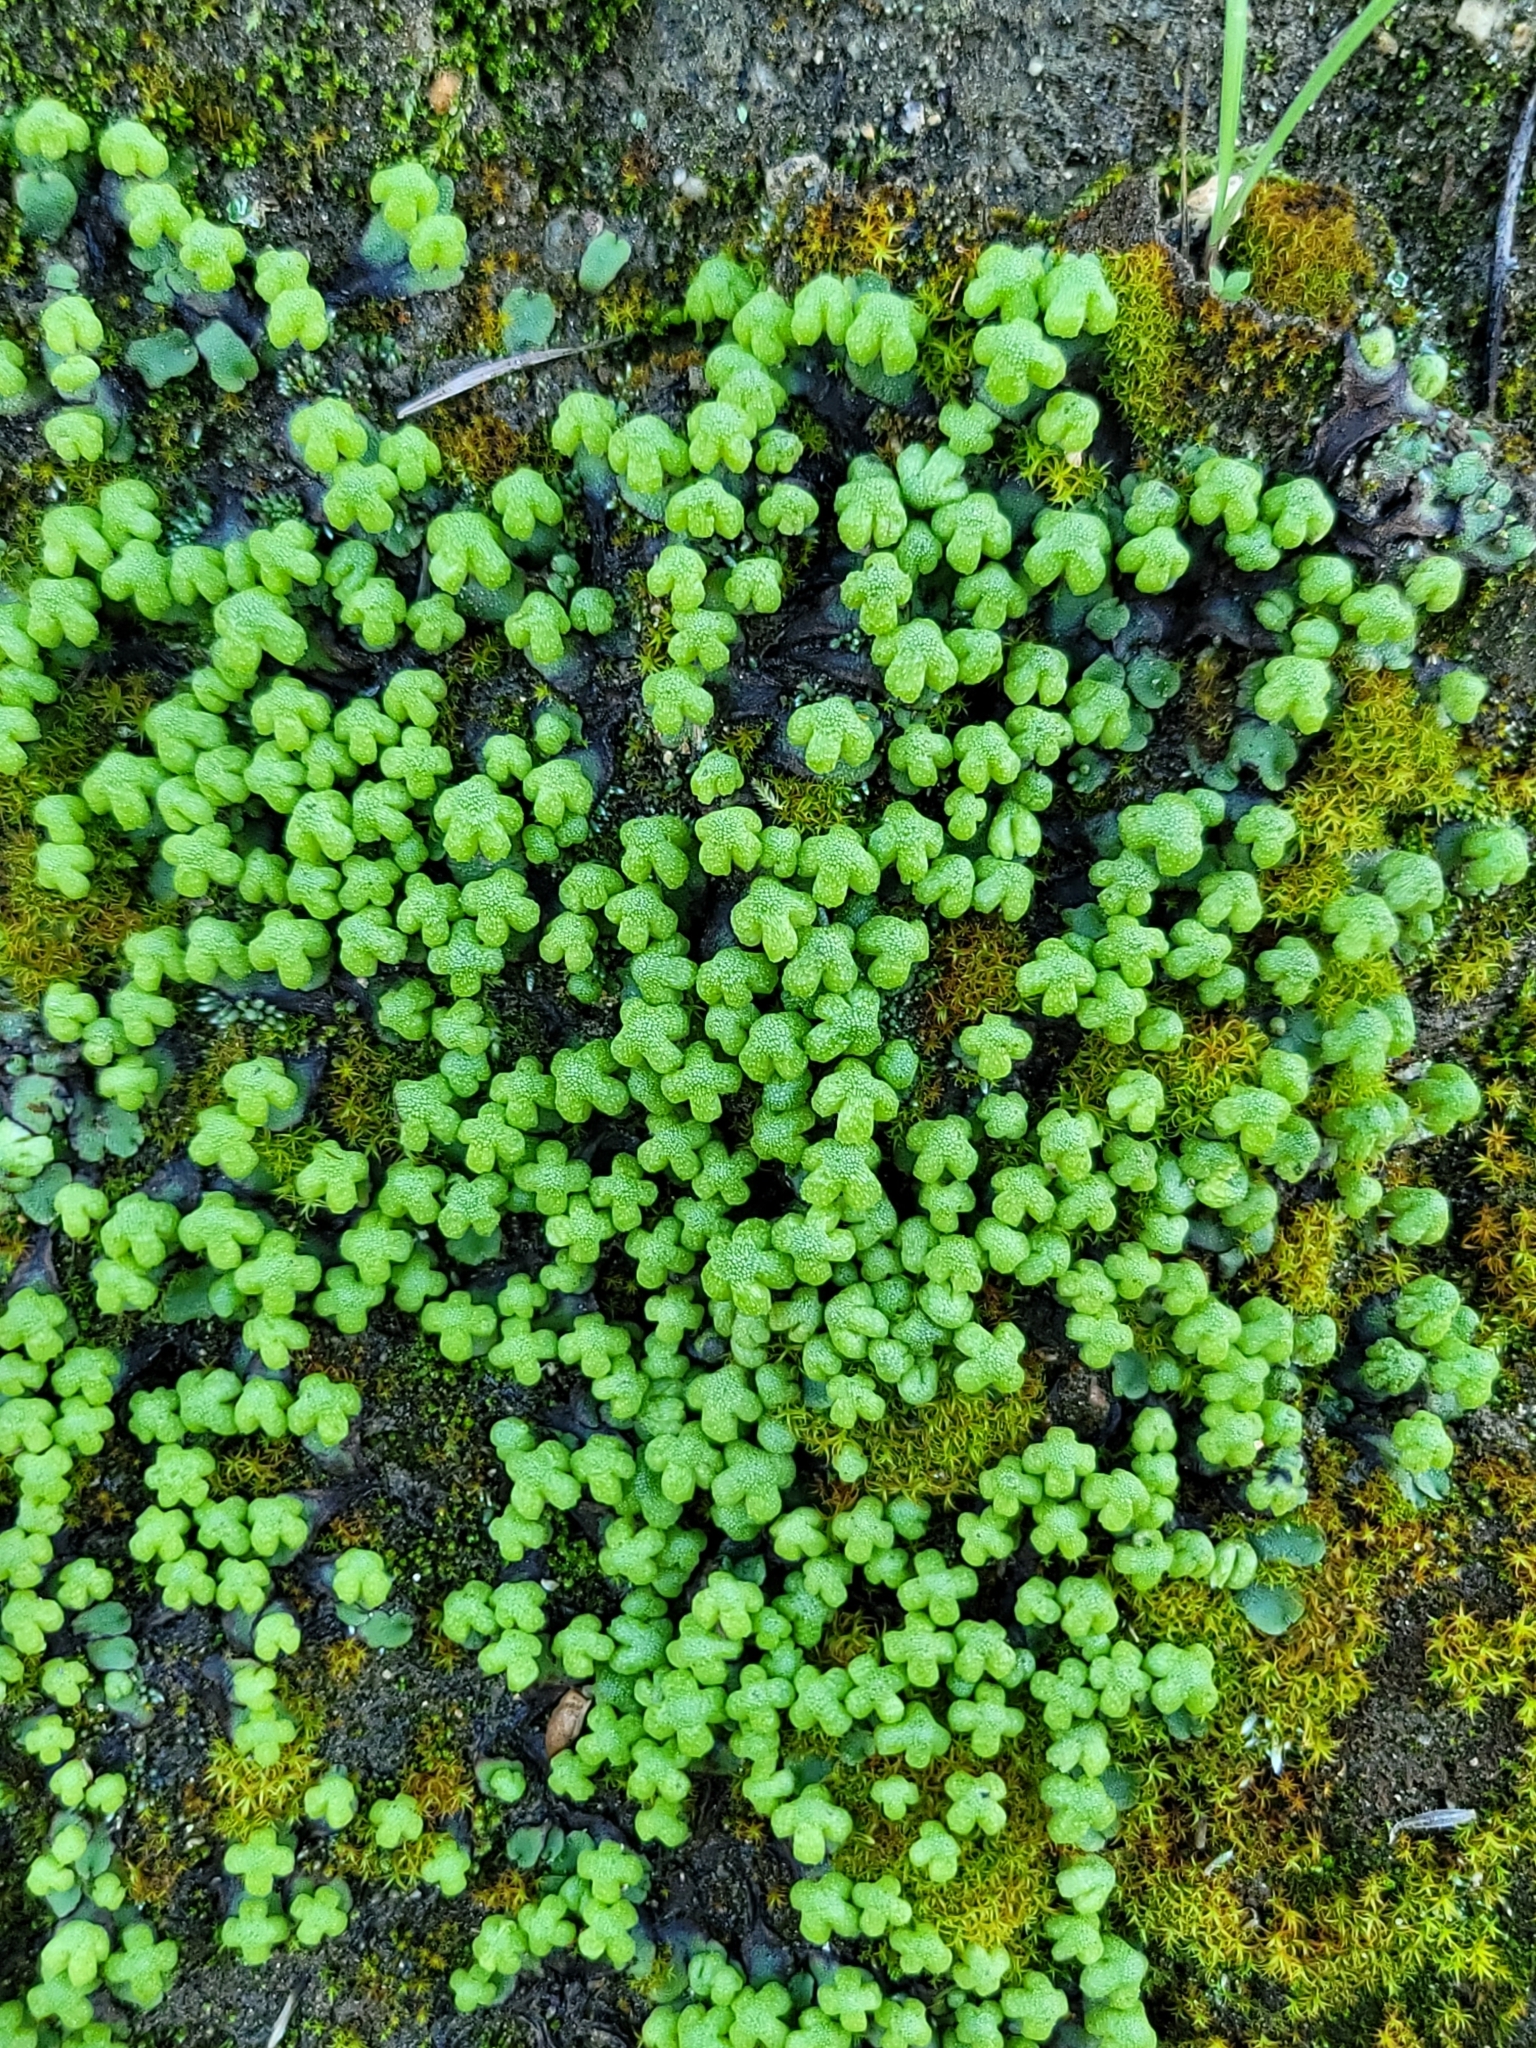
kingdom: Plantae
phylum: Marchantiophyta
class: Marchantiopsida
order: Marchantiales
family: Aytoniaceae
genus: Asterella
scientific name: Asterella californica
